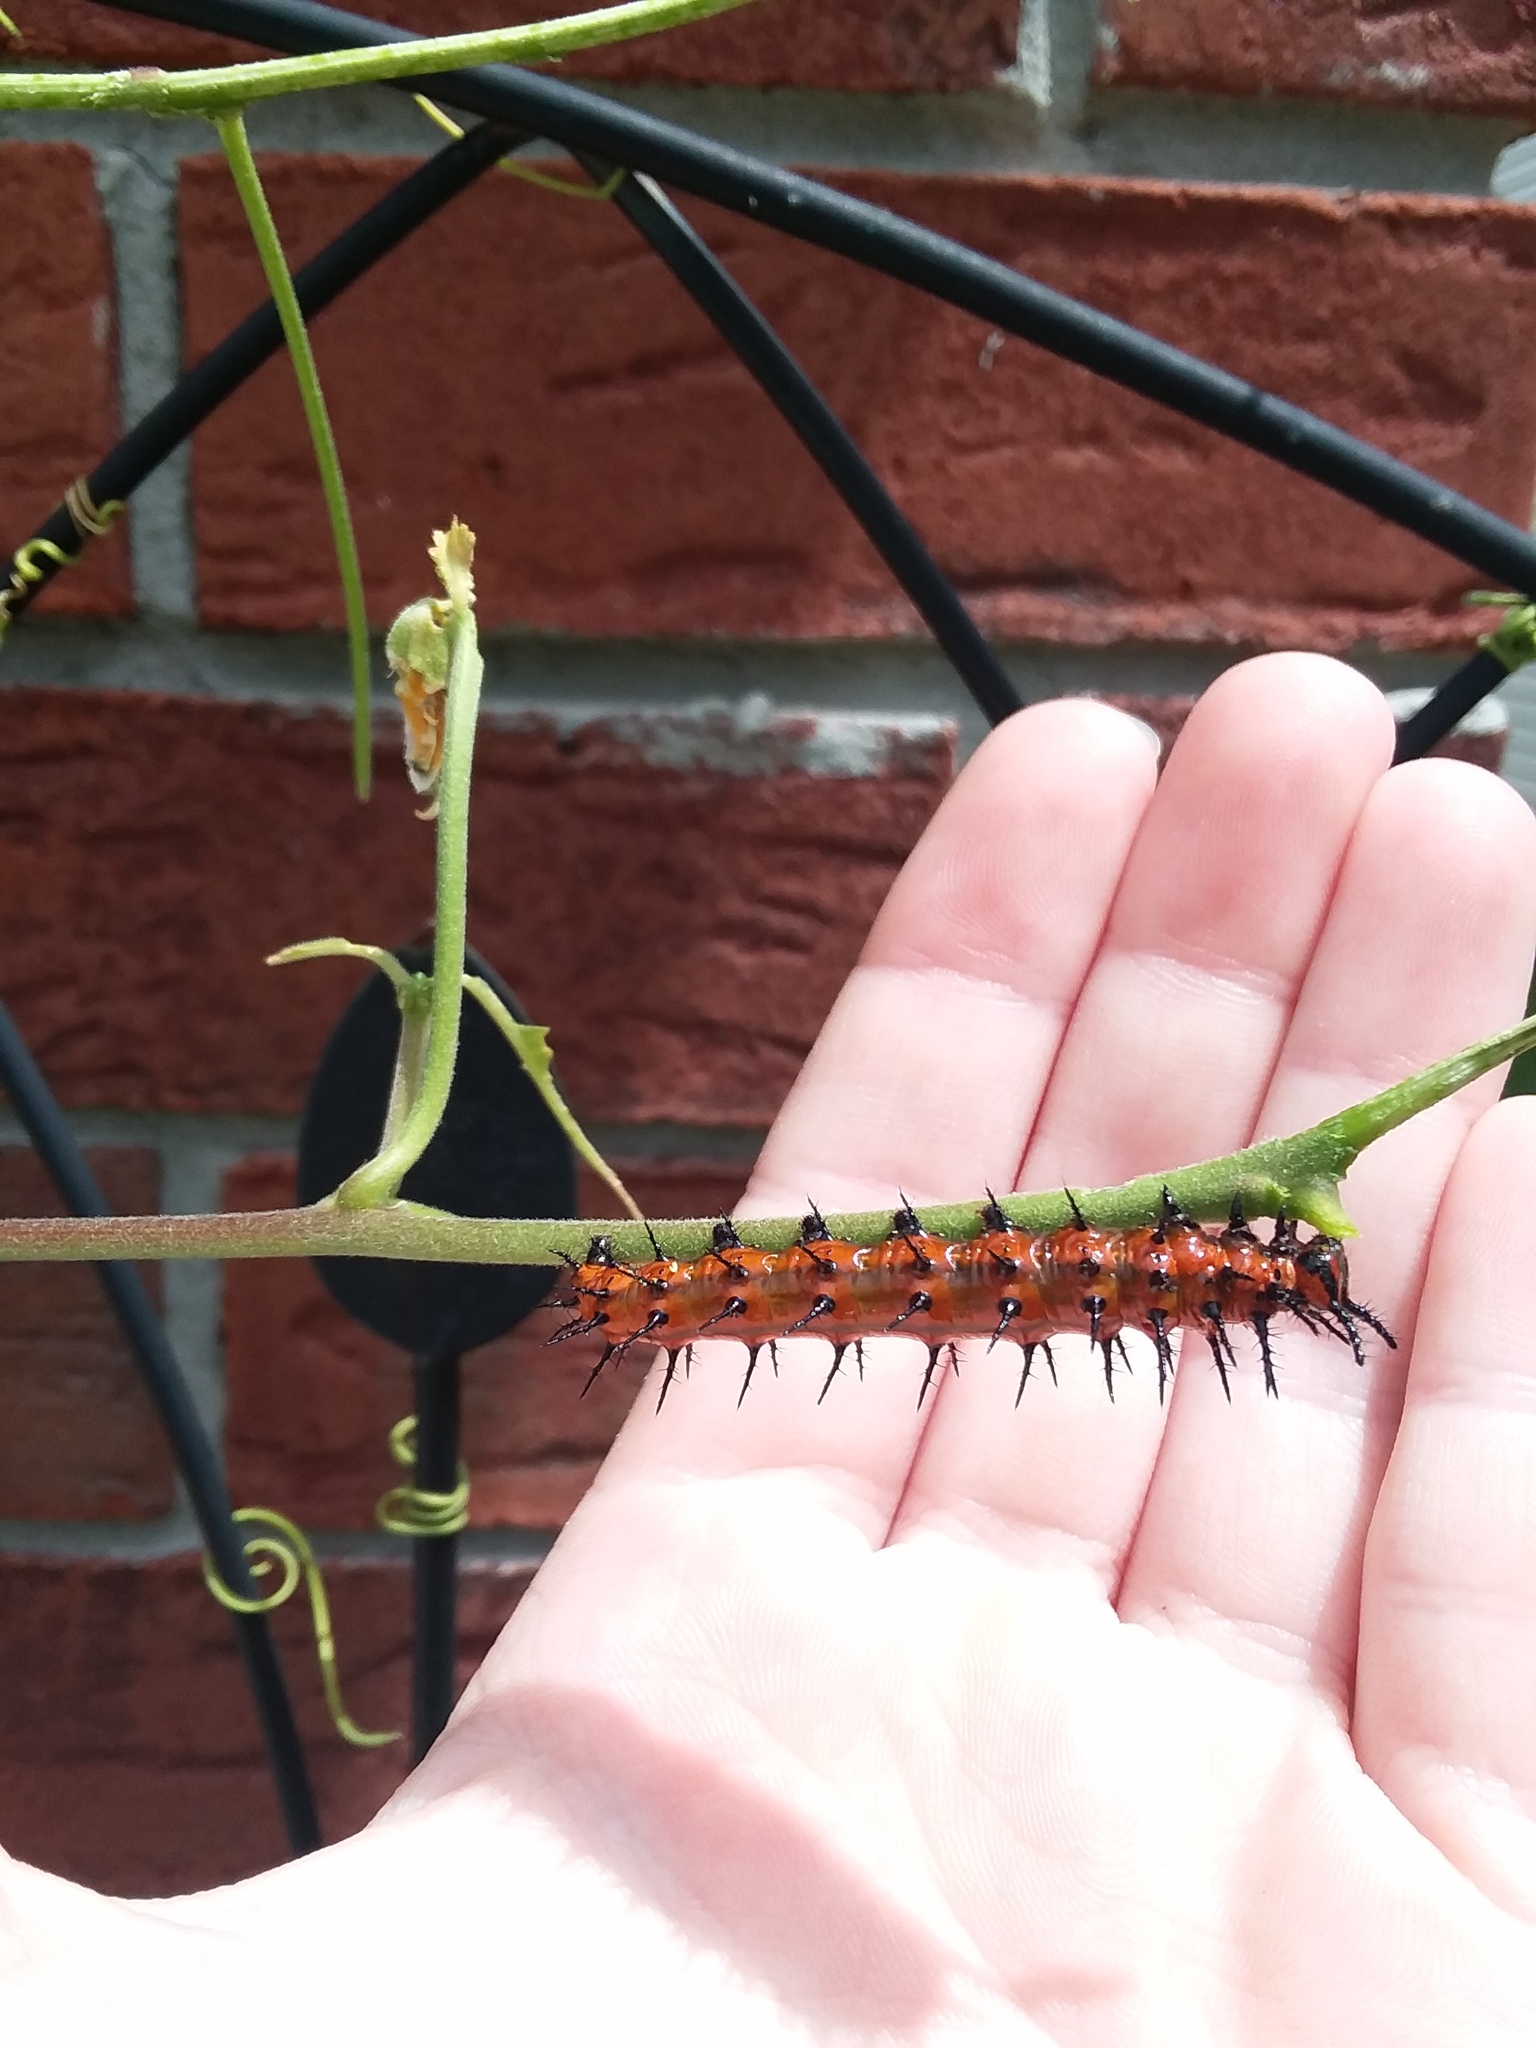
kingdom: Animalia
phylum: Arthropoda
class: Insecta
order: Lepidoptera
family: Nymphalidae
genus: Dione
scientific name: Dione vanillae
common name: Gulf fritillary
